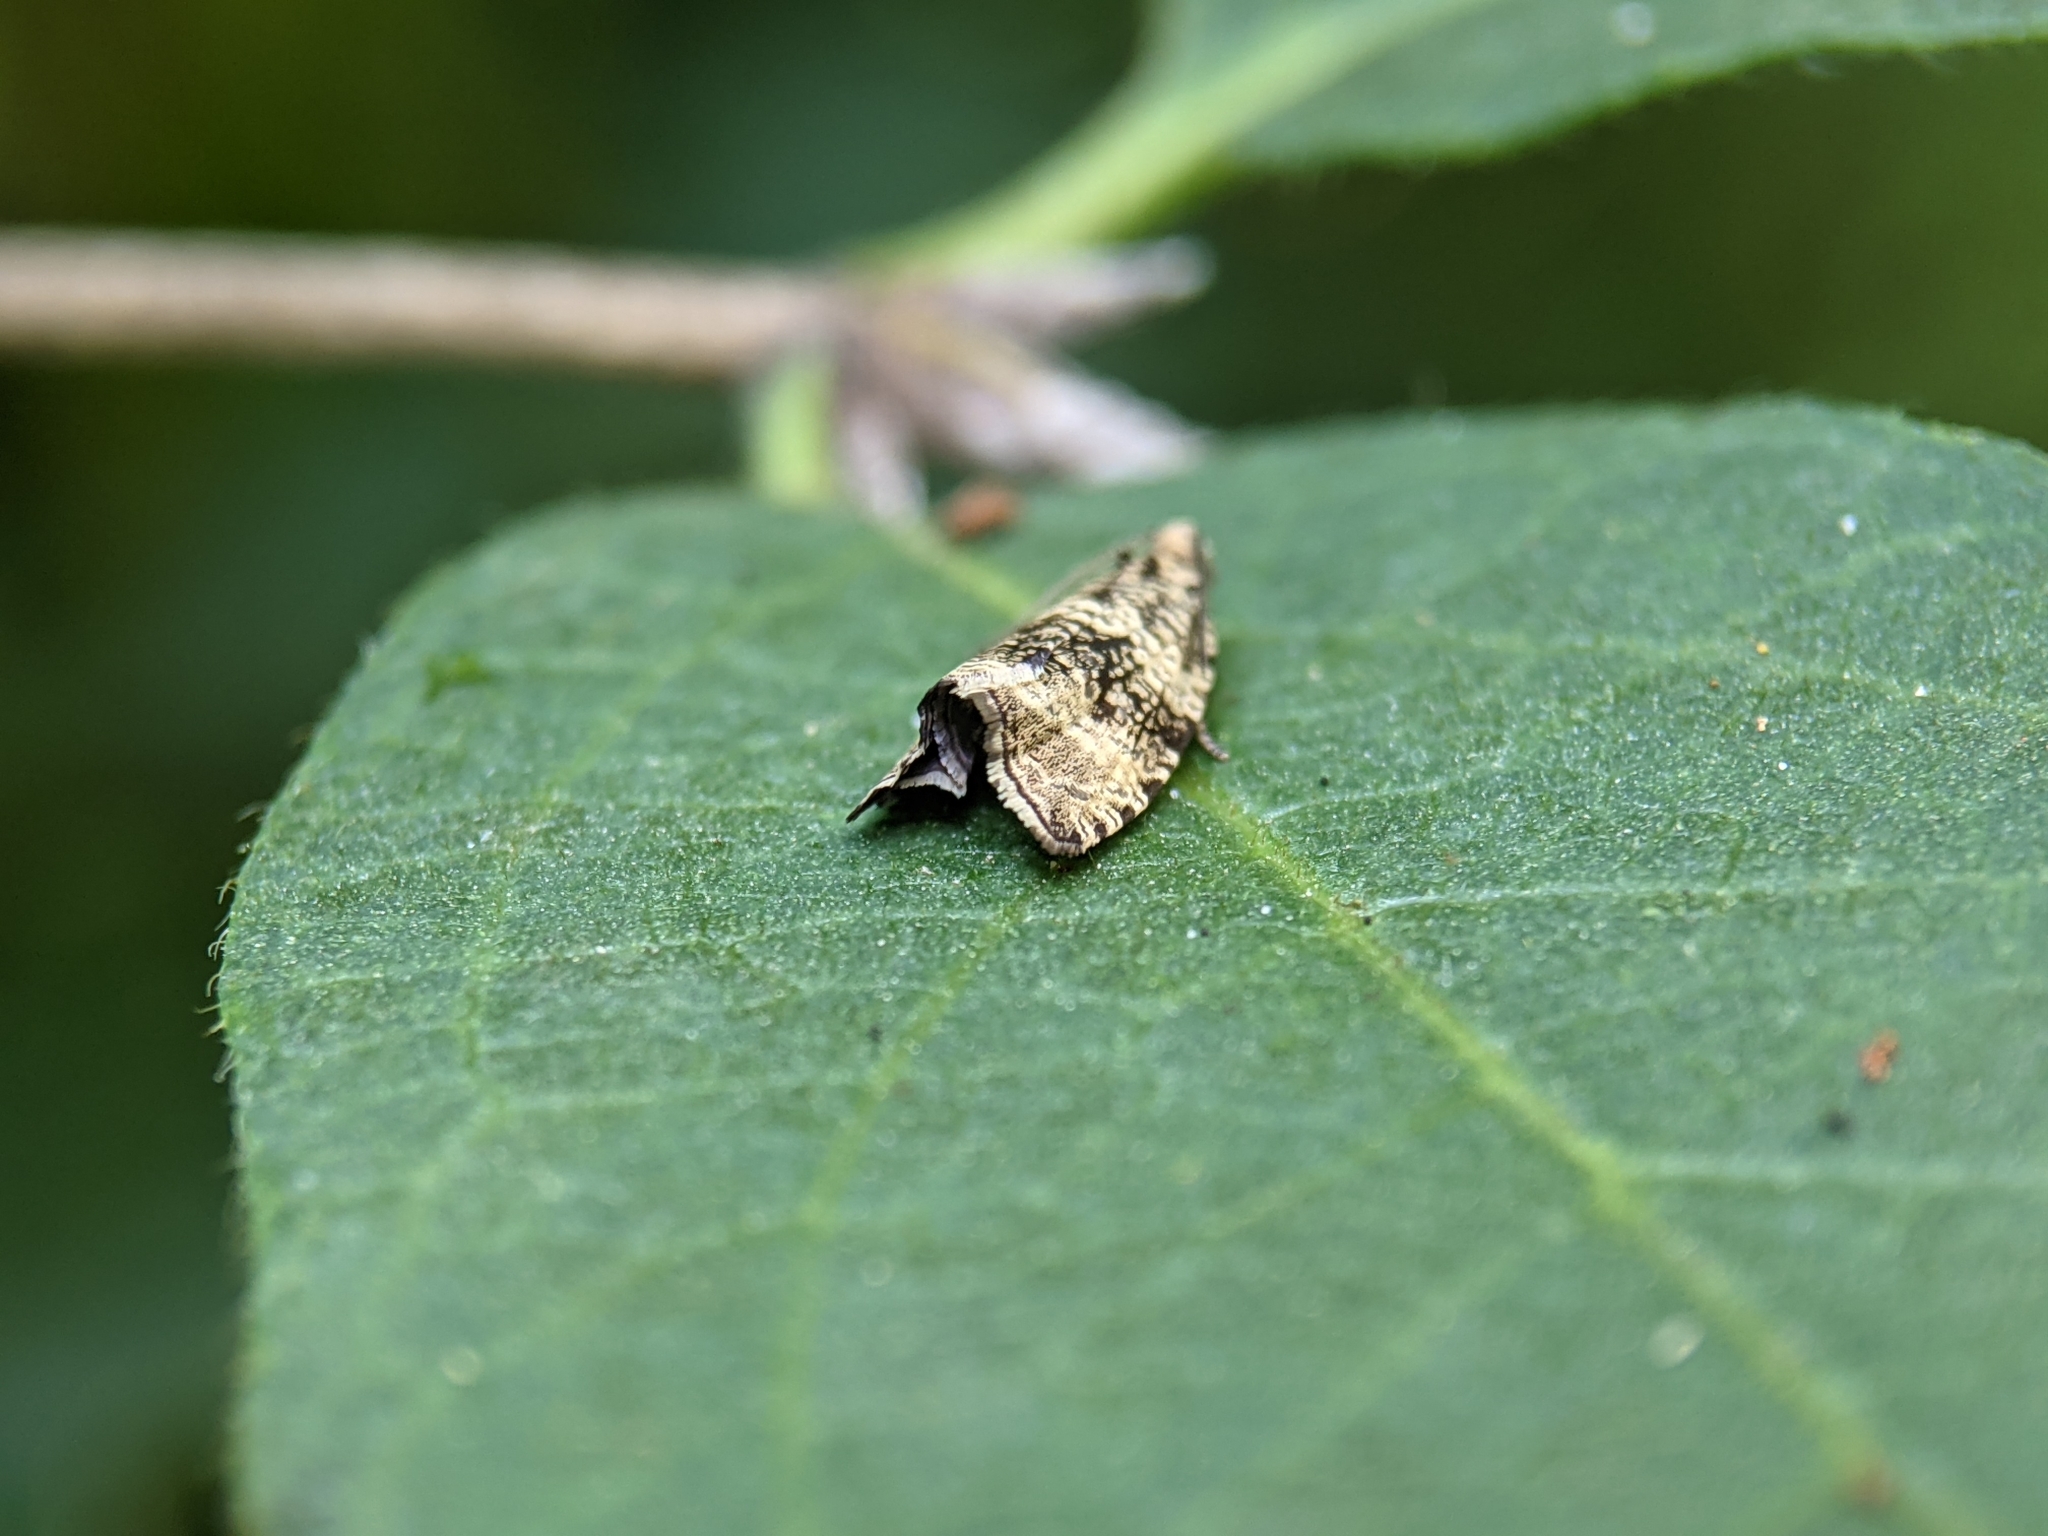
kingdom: Animalia
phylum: Arthropoda
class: Insecta
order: Lepidoptera
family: Tortricidae
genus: Syricoris
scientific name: Syricoris lacunana
